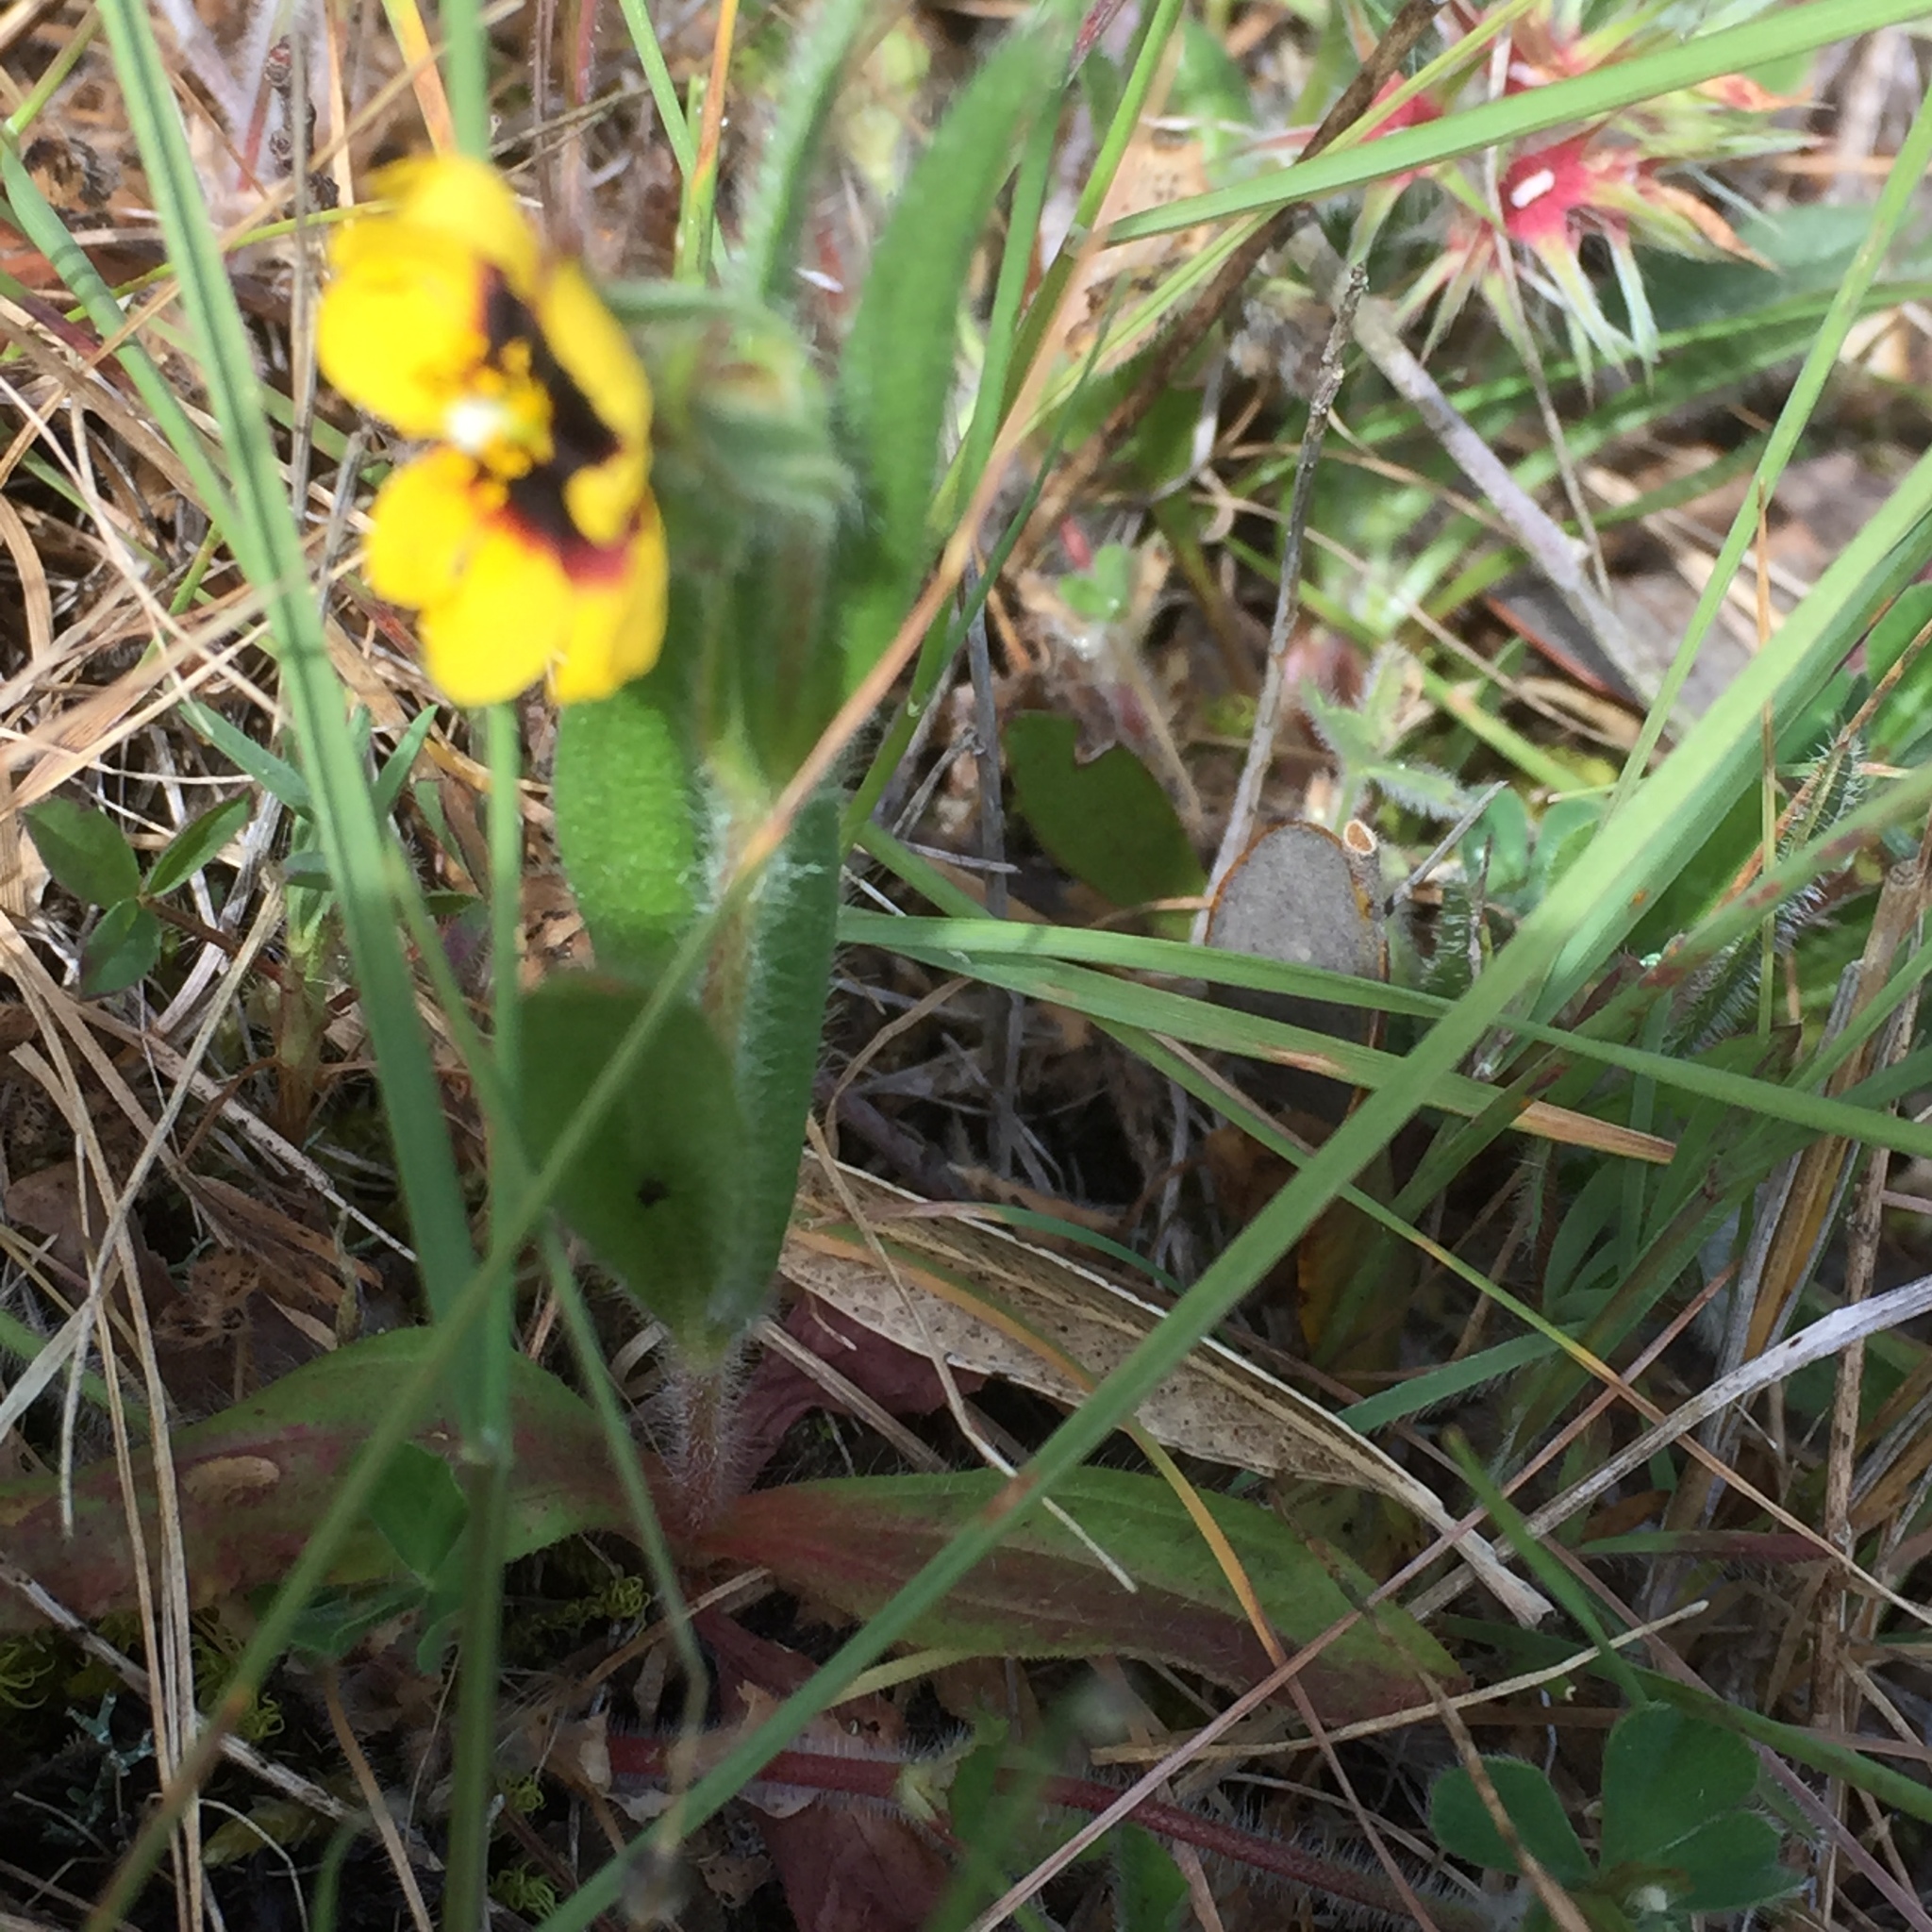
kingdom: Plantae
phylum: Tracheophyta
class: Magnoliopsida
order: Malvales
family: Cistaceae
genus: Tuberaria
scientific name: Tuberaria guttata
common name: Spotted rock-rose
